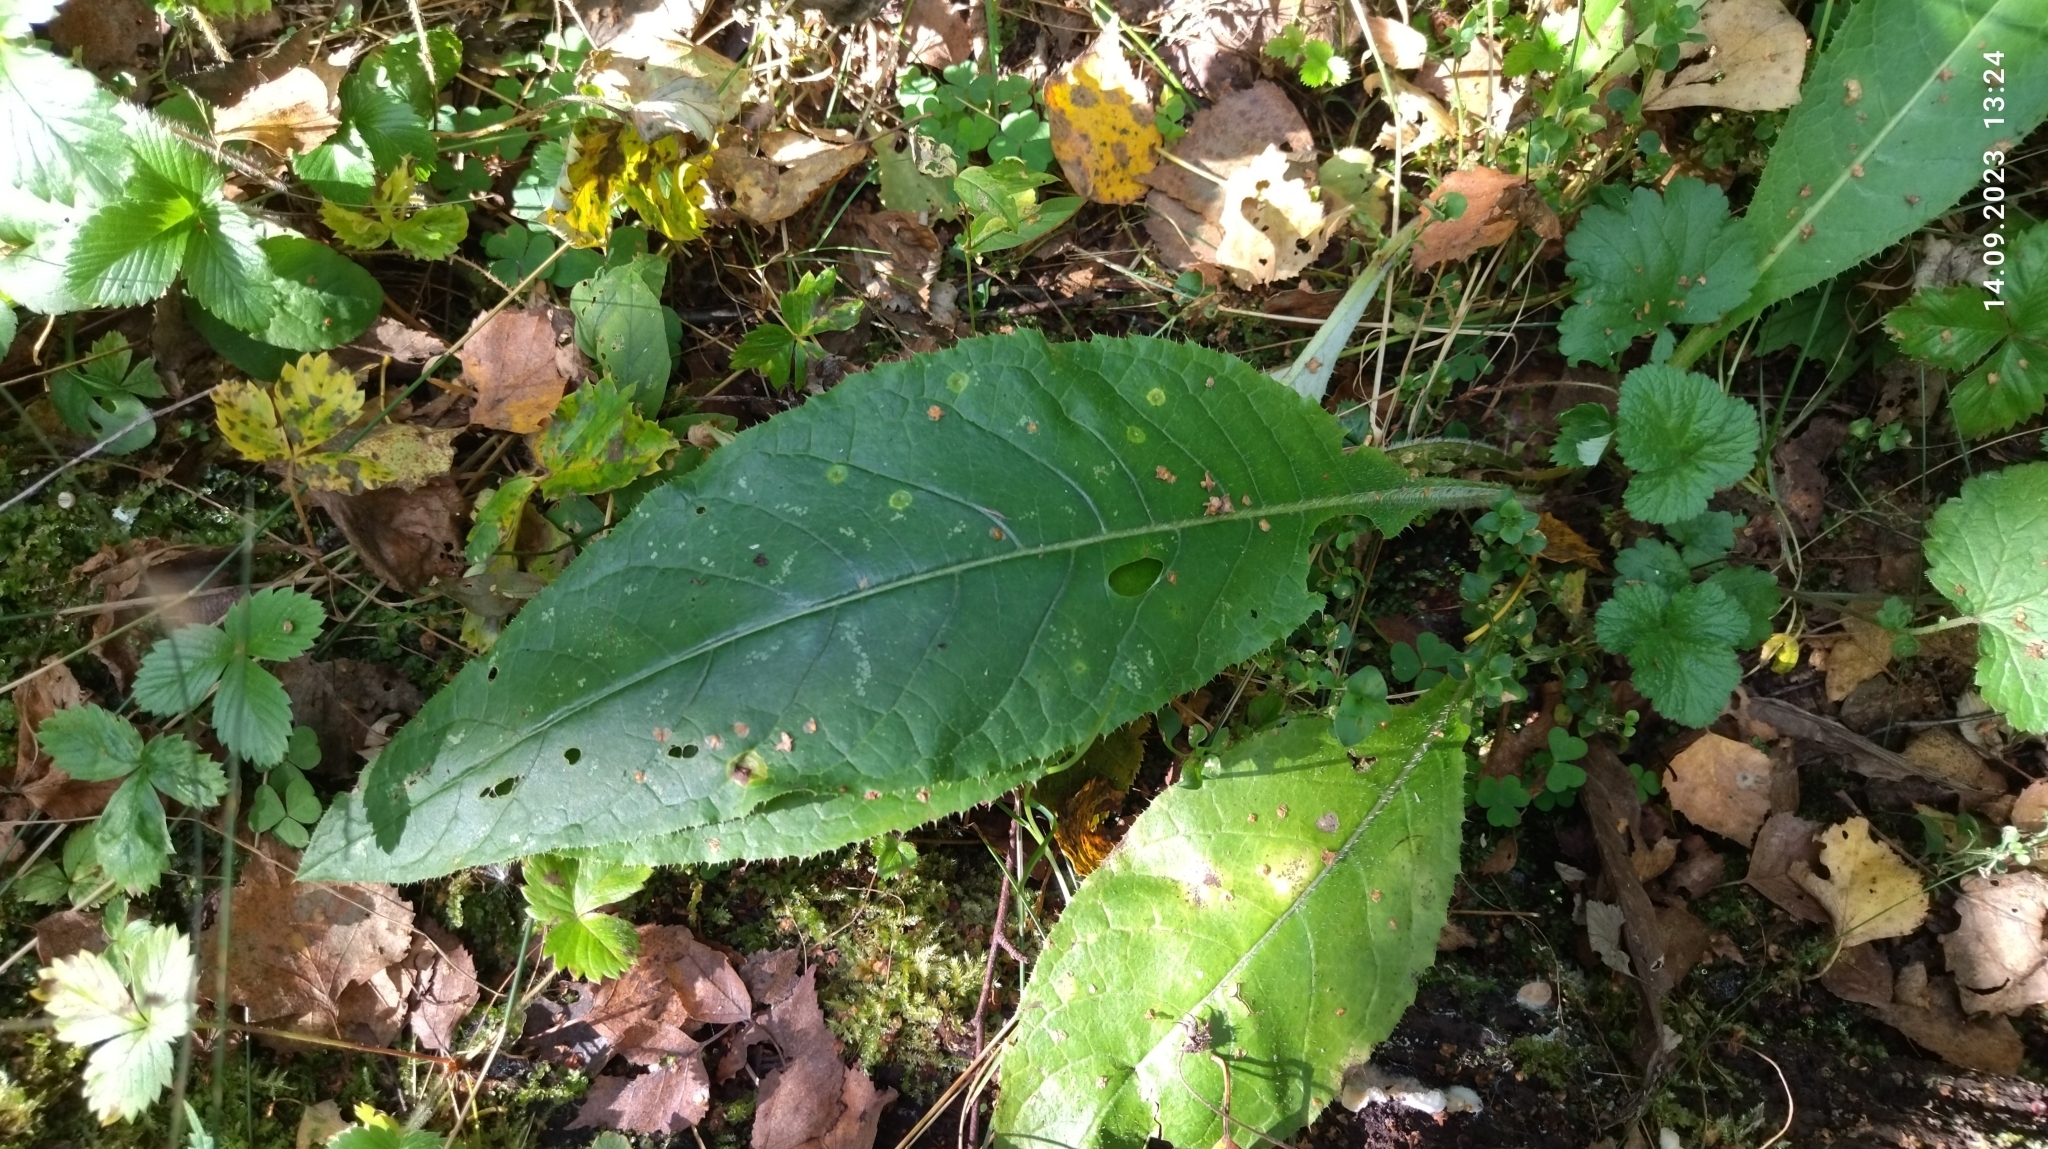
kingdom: Plantae
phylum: Tracheophyta
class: Magnoliopsida
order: Asterales
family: Asteraceae
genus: Cirsium
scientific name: Cirsium heterophyllum
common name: Melancholy thistle
